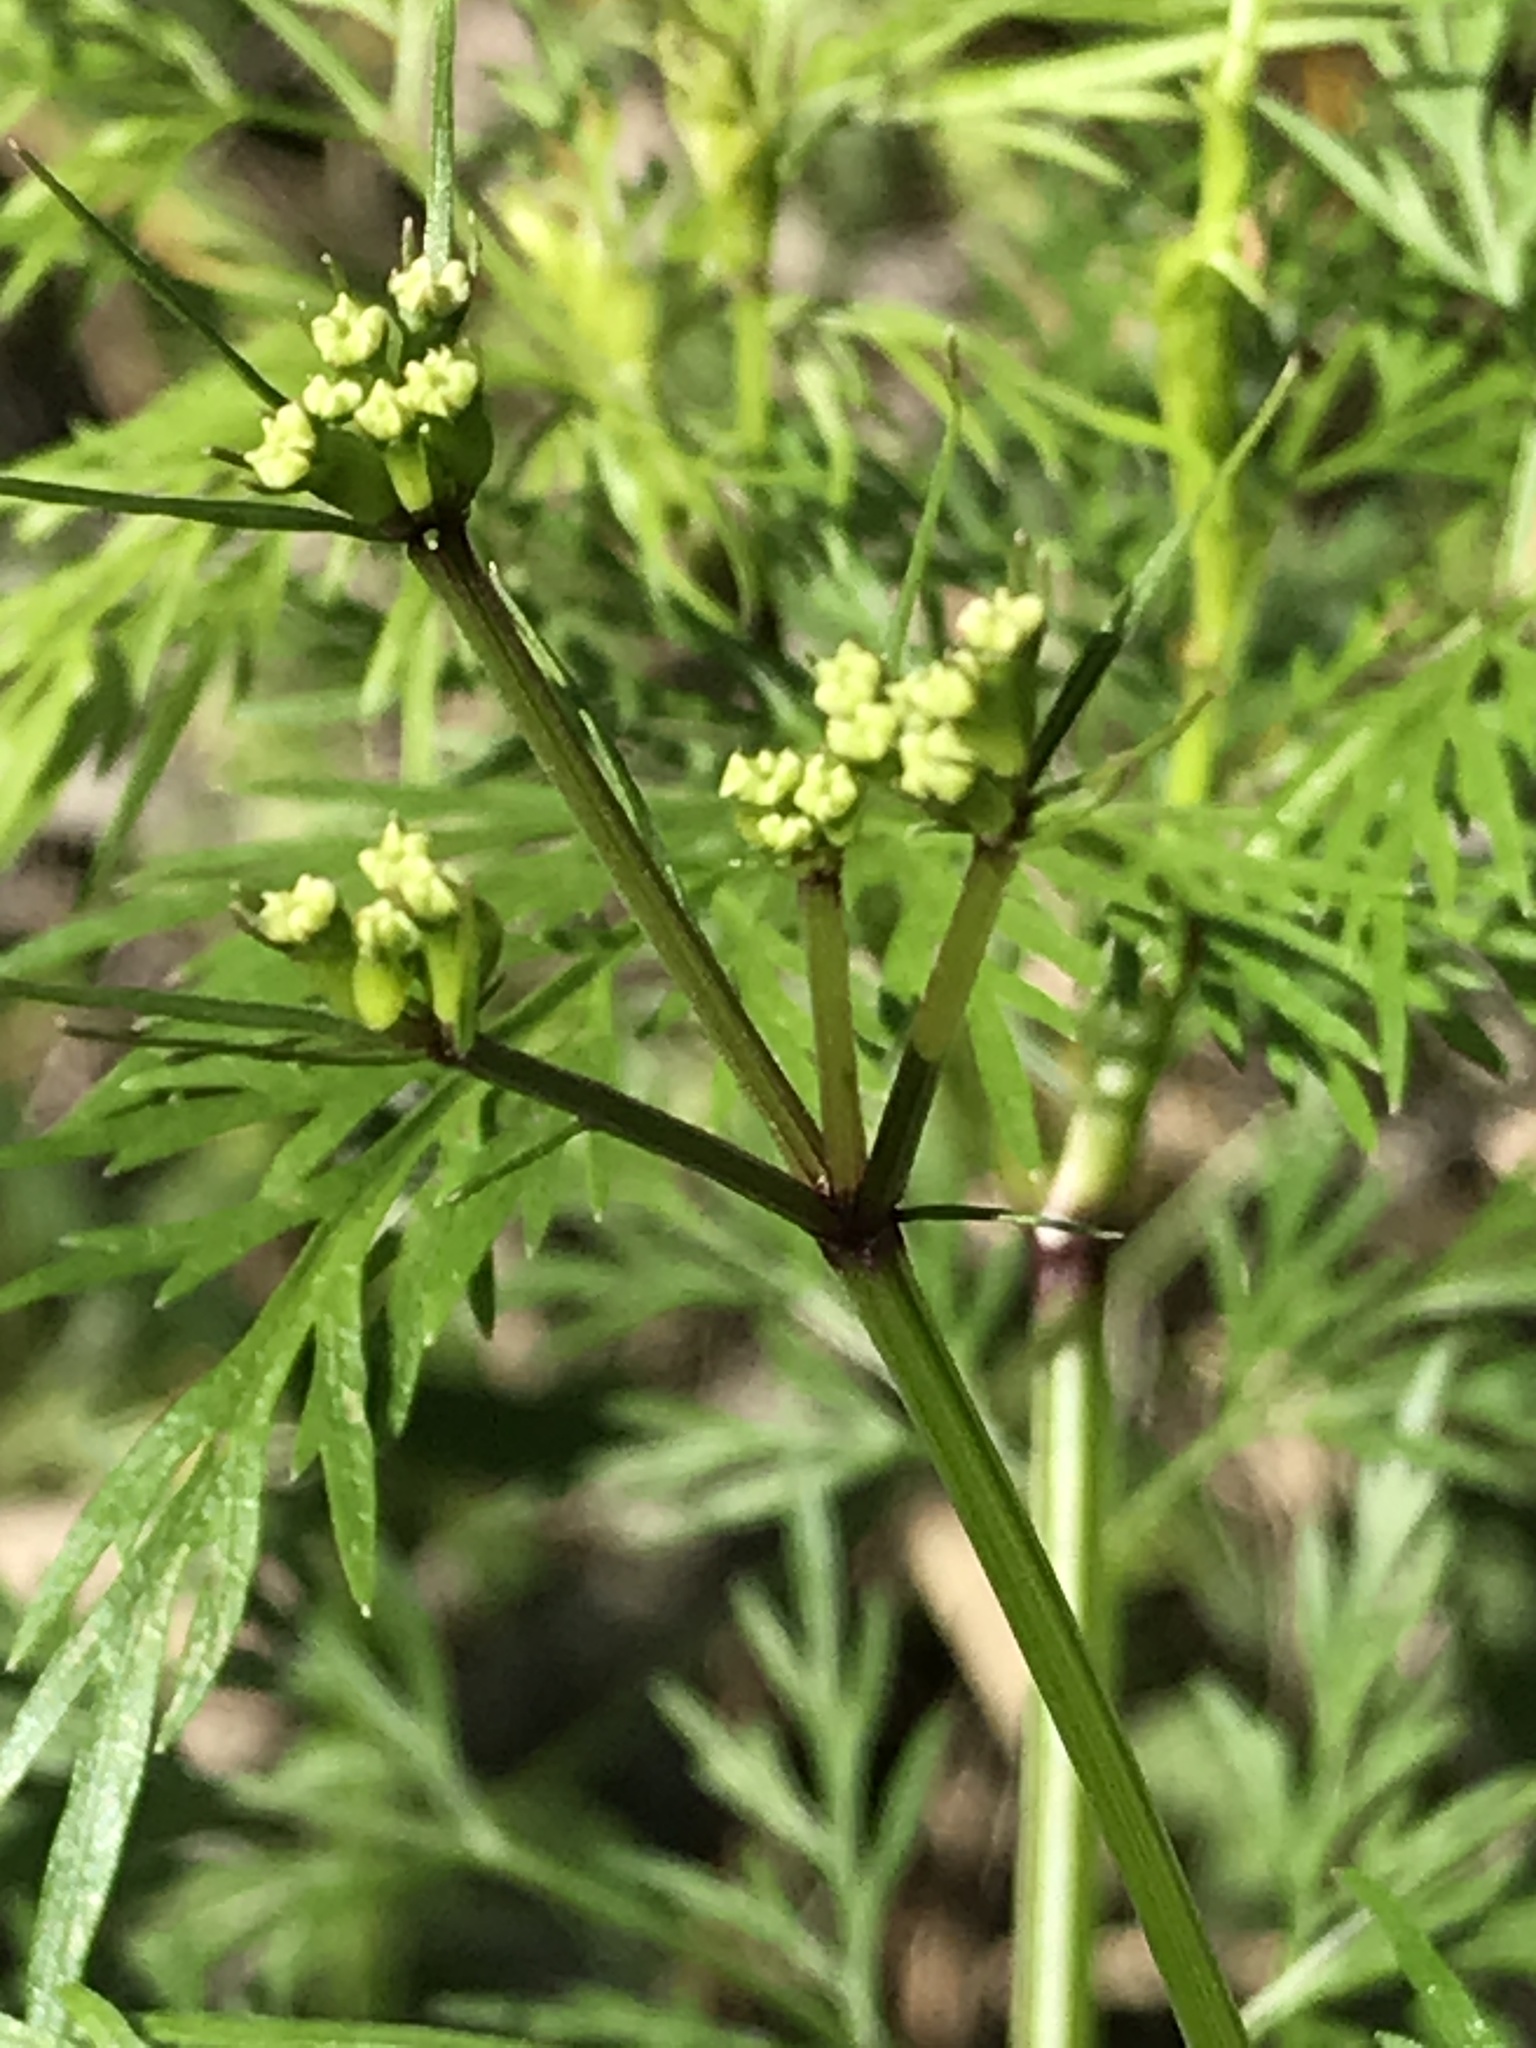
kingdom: Plantae
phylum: Tracheophyta
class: Magnoliopsida
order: Apiales
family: Apiaceae
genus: Trepocarpus
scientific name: Trepocarpus aethusae
